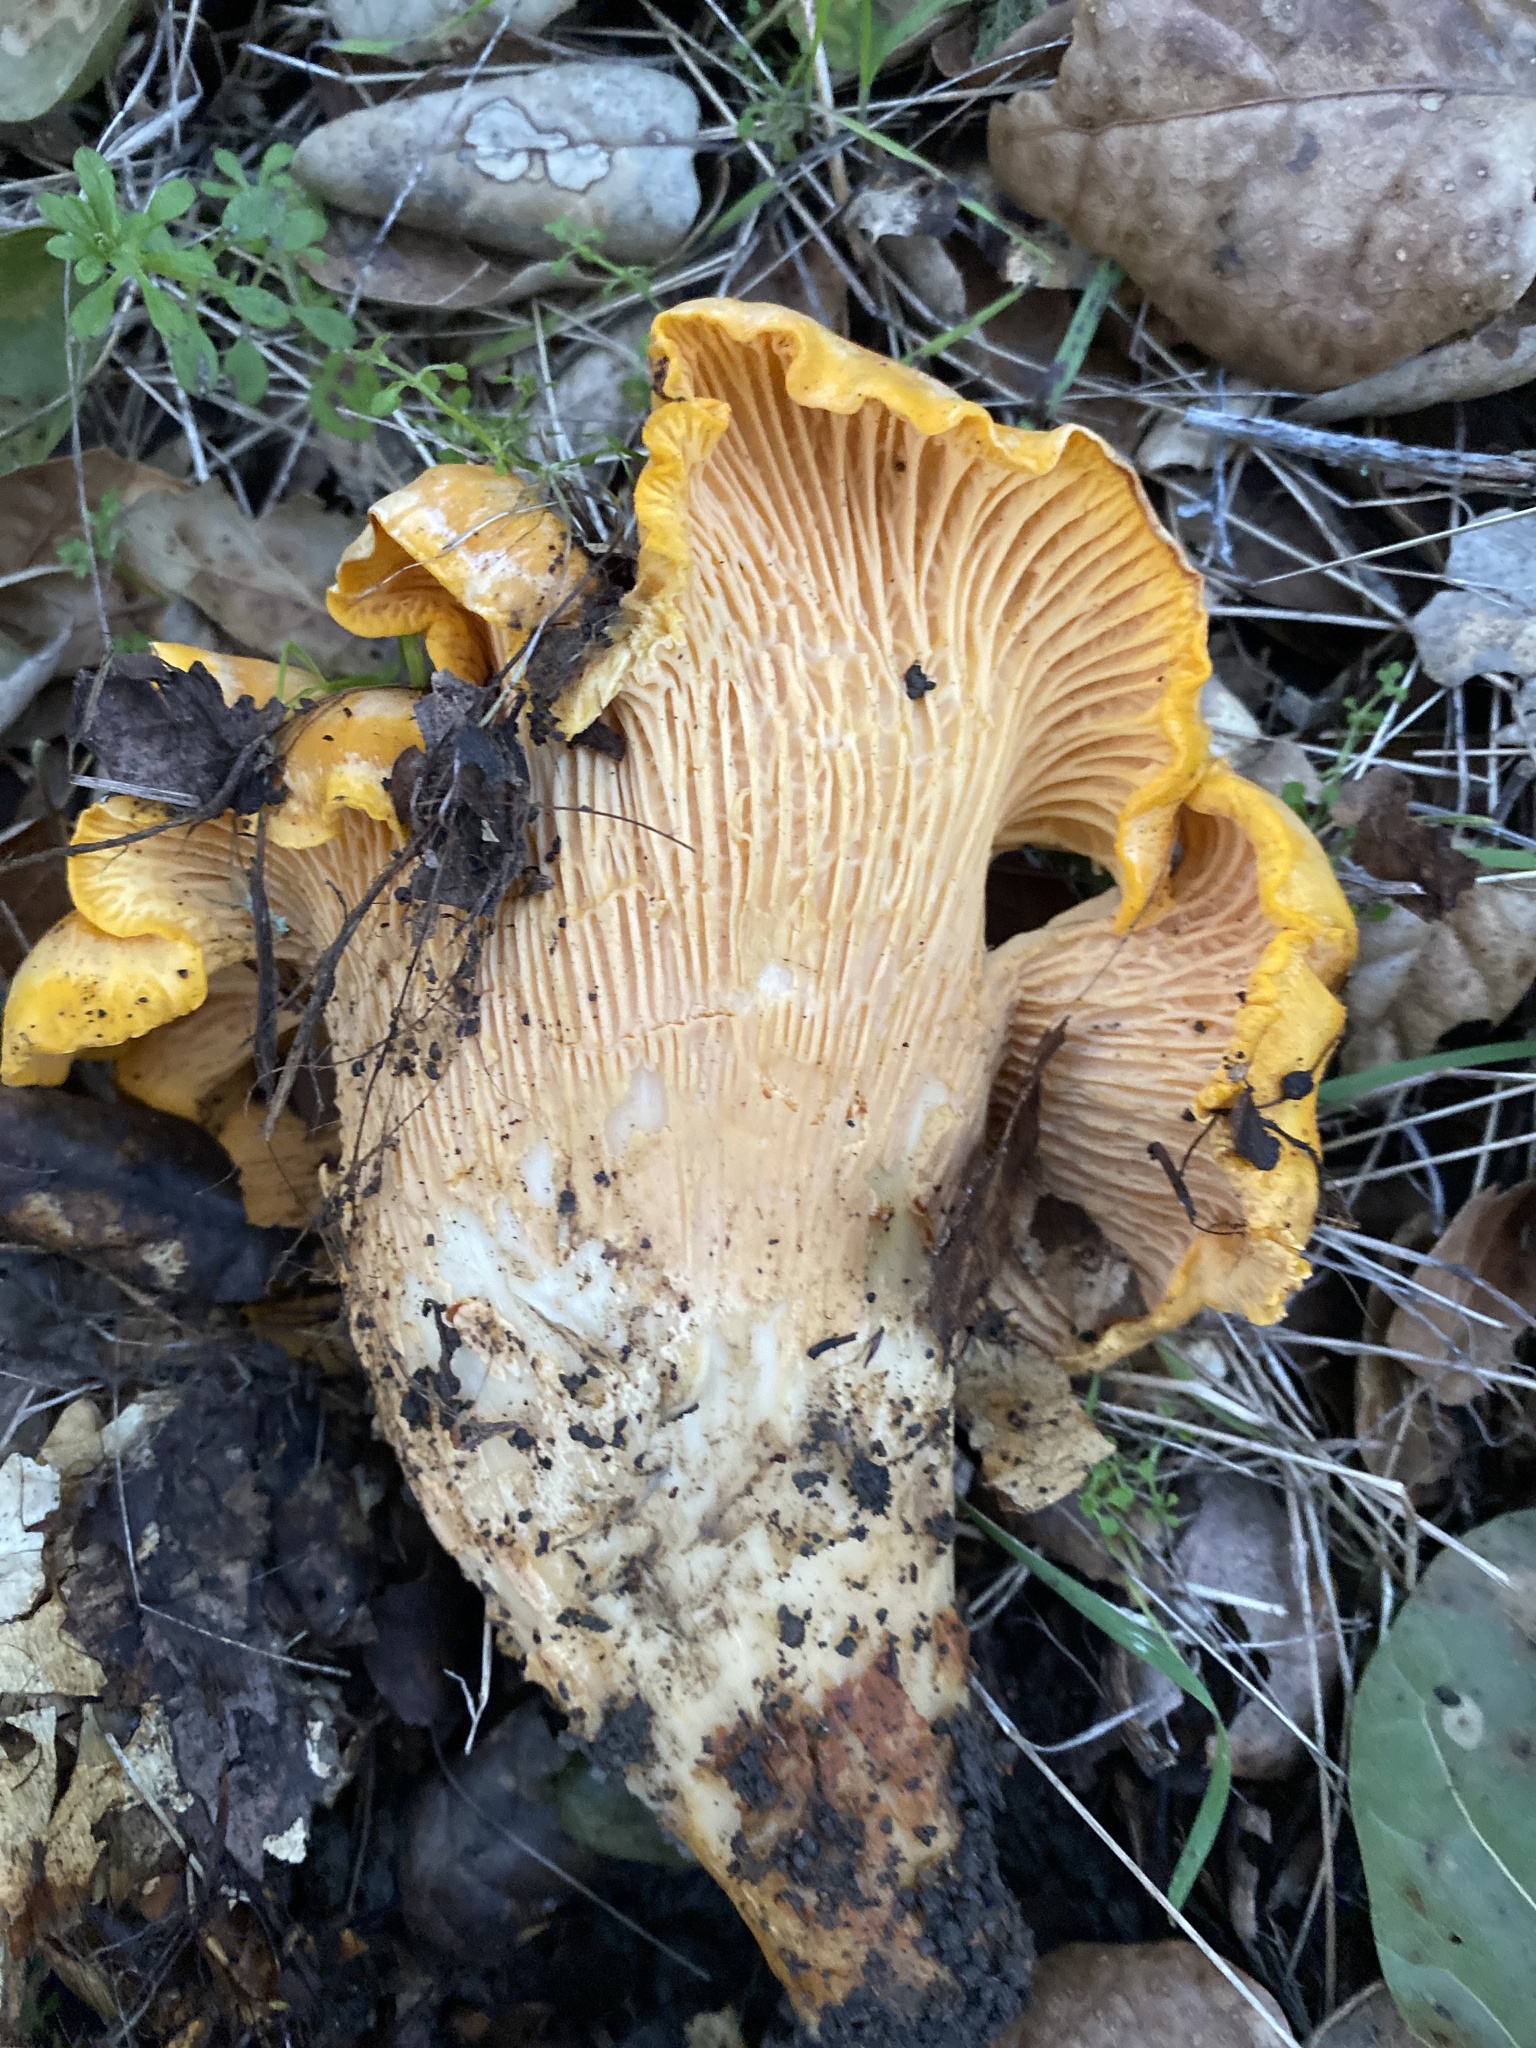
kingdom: Fungi
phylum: Basidiomycota
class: Agaricomycetes
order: Cantharellales
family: Hydnaceae
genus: Cantharellus
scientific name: Cantharellus californicus
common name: California golden chanterelle
